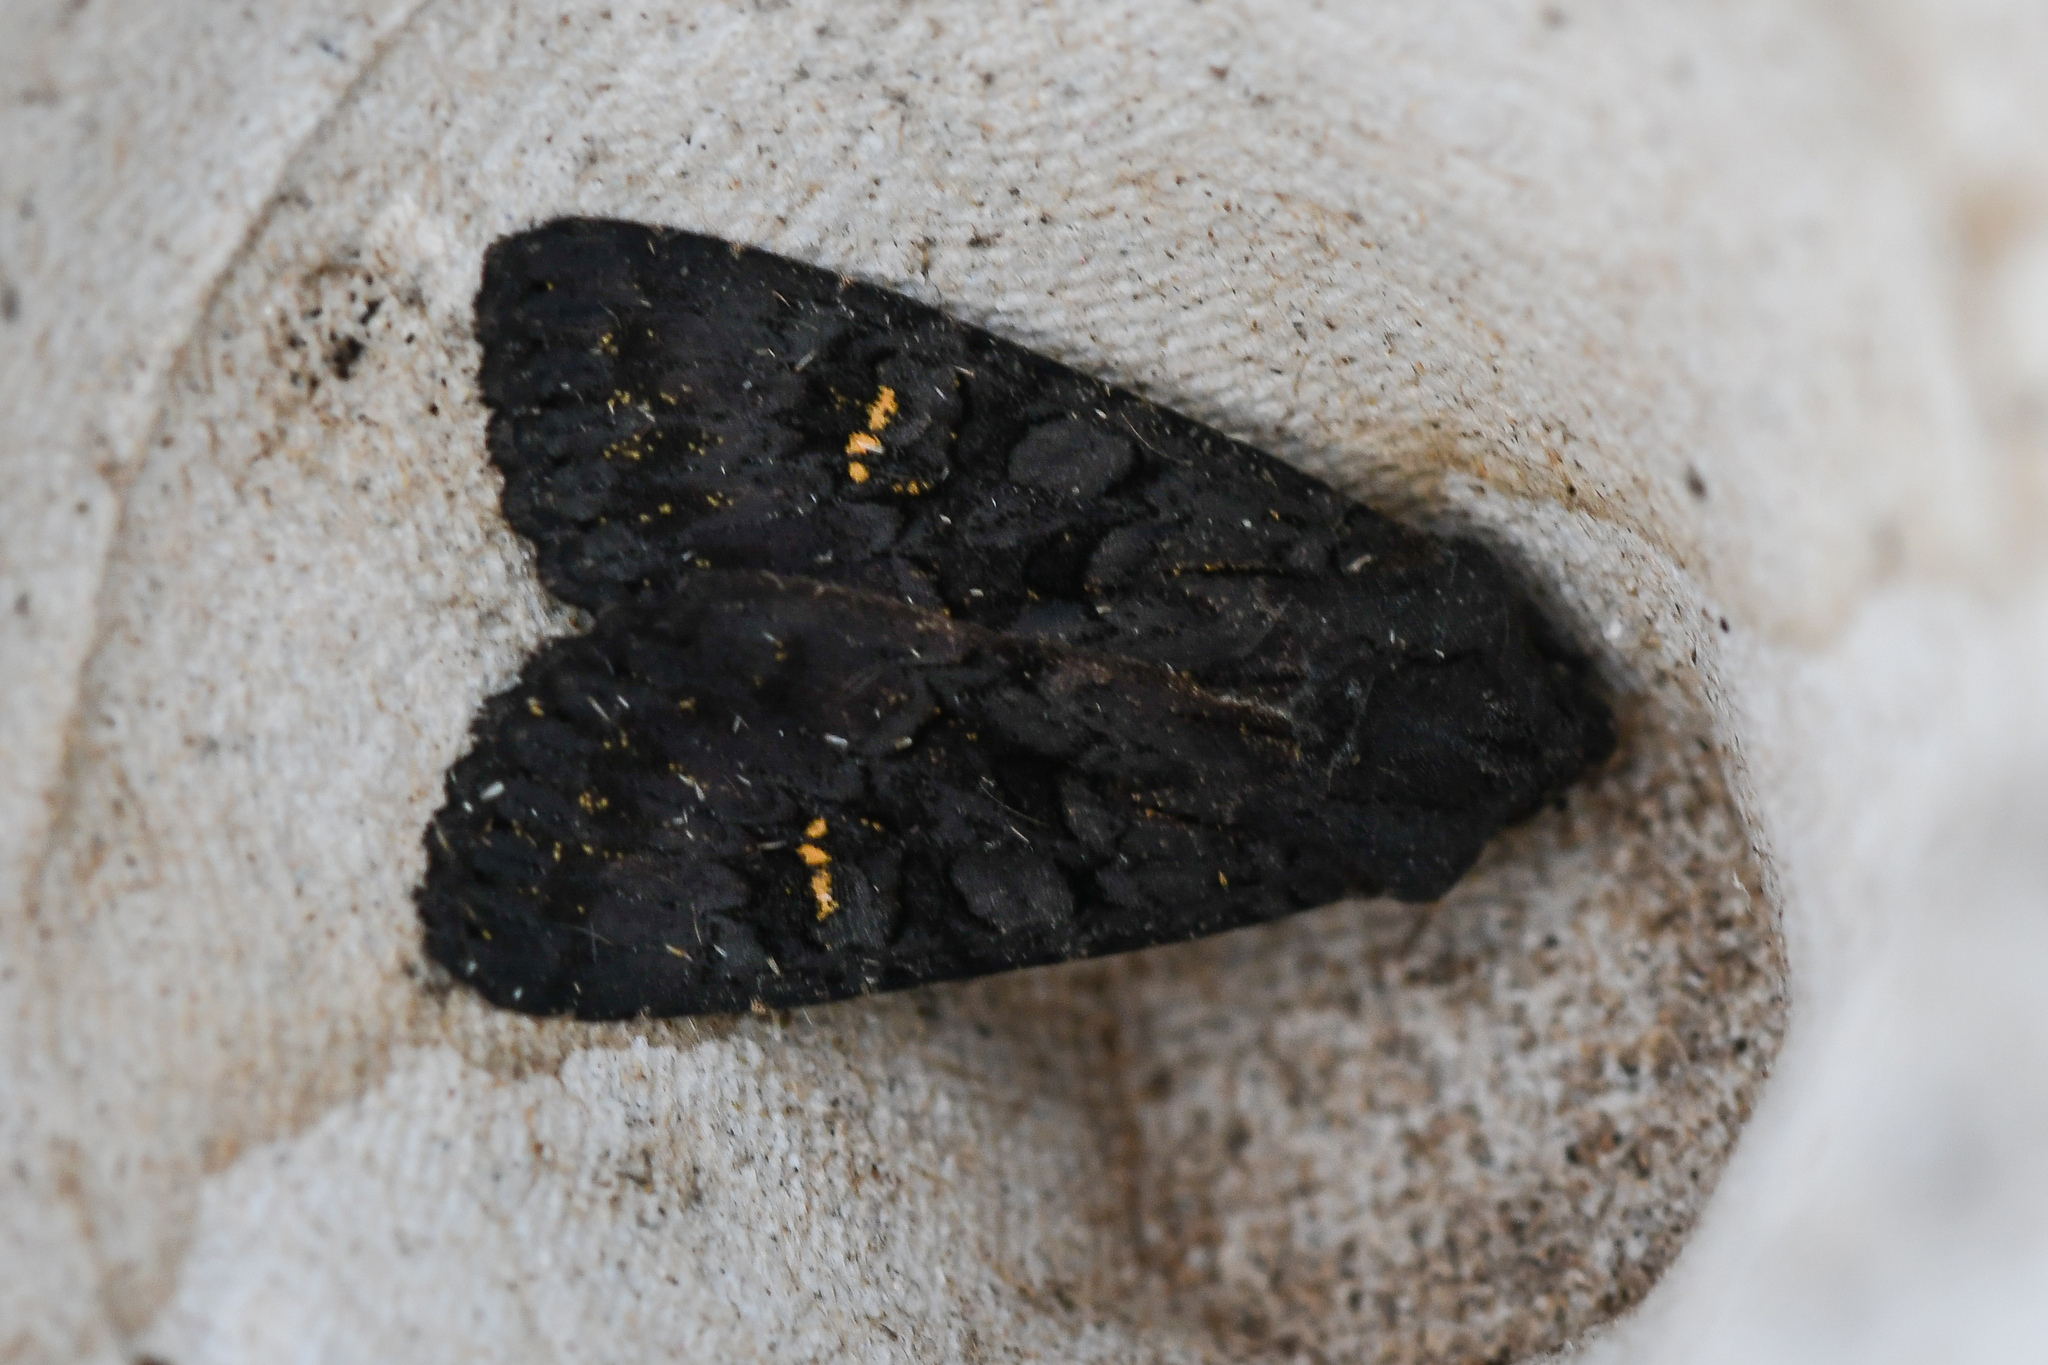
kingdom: Animalia
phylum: Arthropoda
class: Insecta
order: Lepidoptera
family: Noctuidae
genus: Aporophyla
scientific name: Aporophyla nigra
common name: Black rustic
